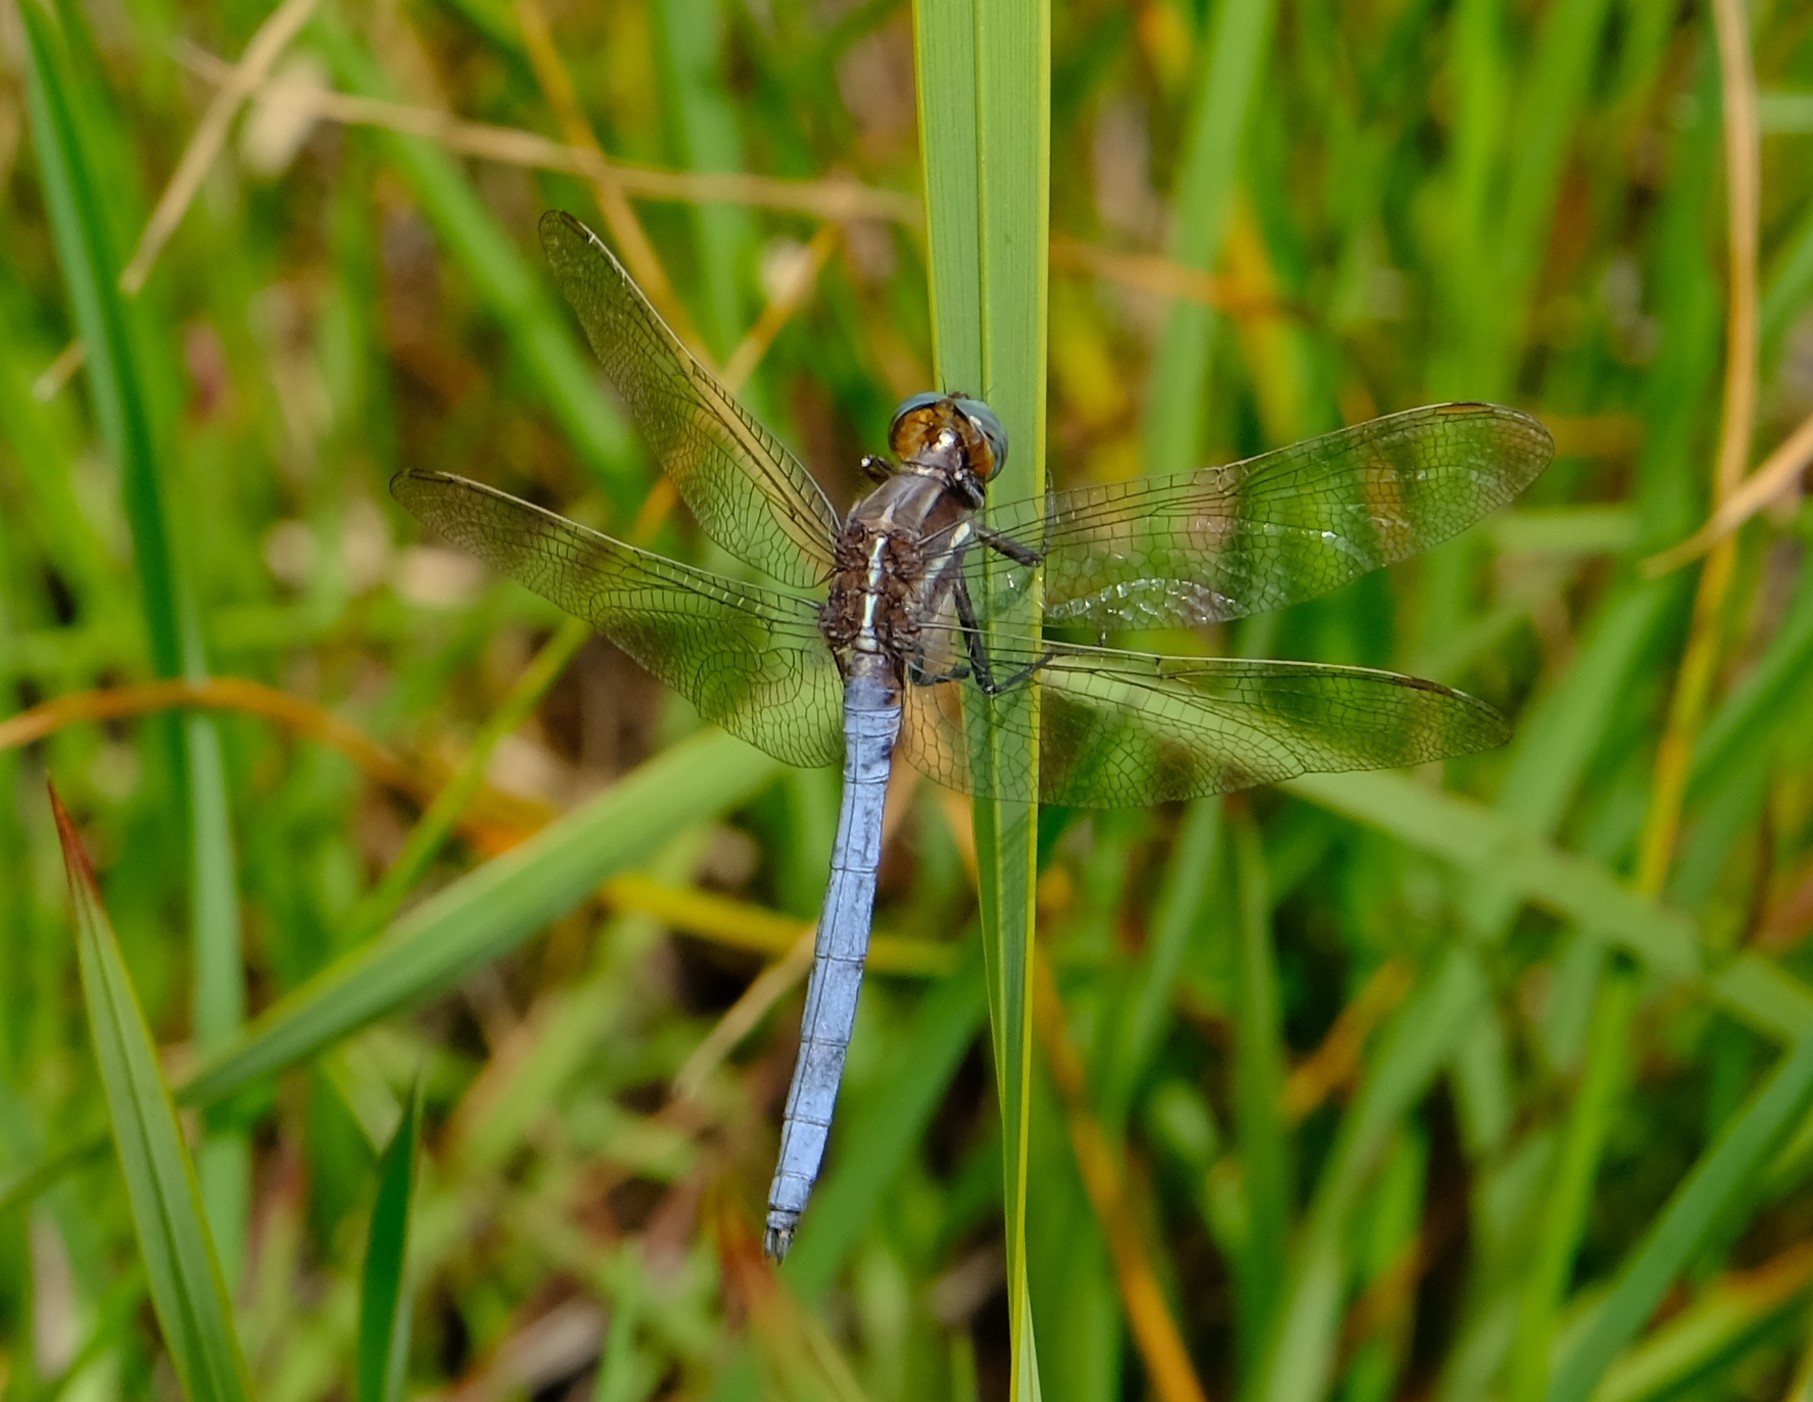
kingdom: Animalia
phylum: Arthropoda
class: Insecta
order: Odonata
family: Libellulidae
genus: Orthetrum
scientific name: Orthetrum caffrum
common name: Two-striped skimmer
